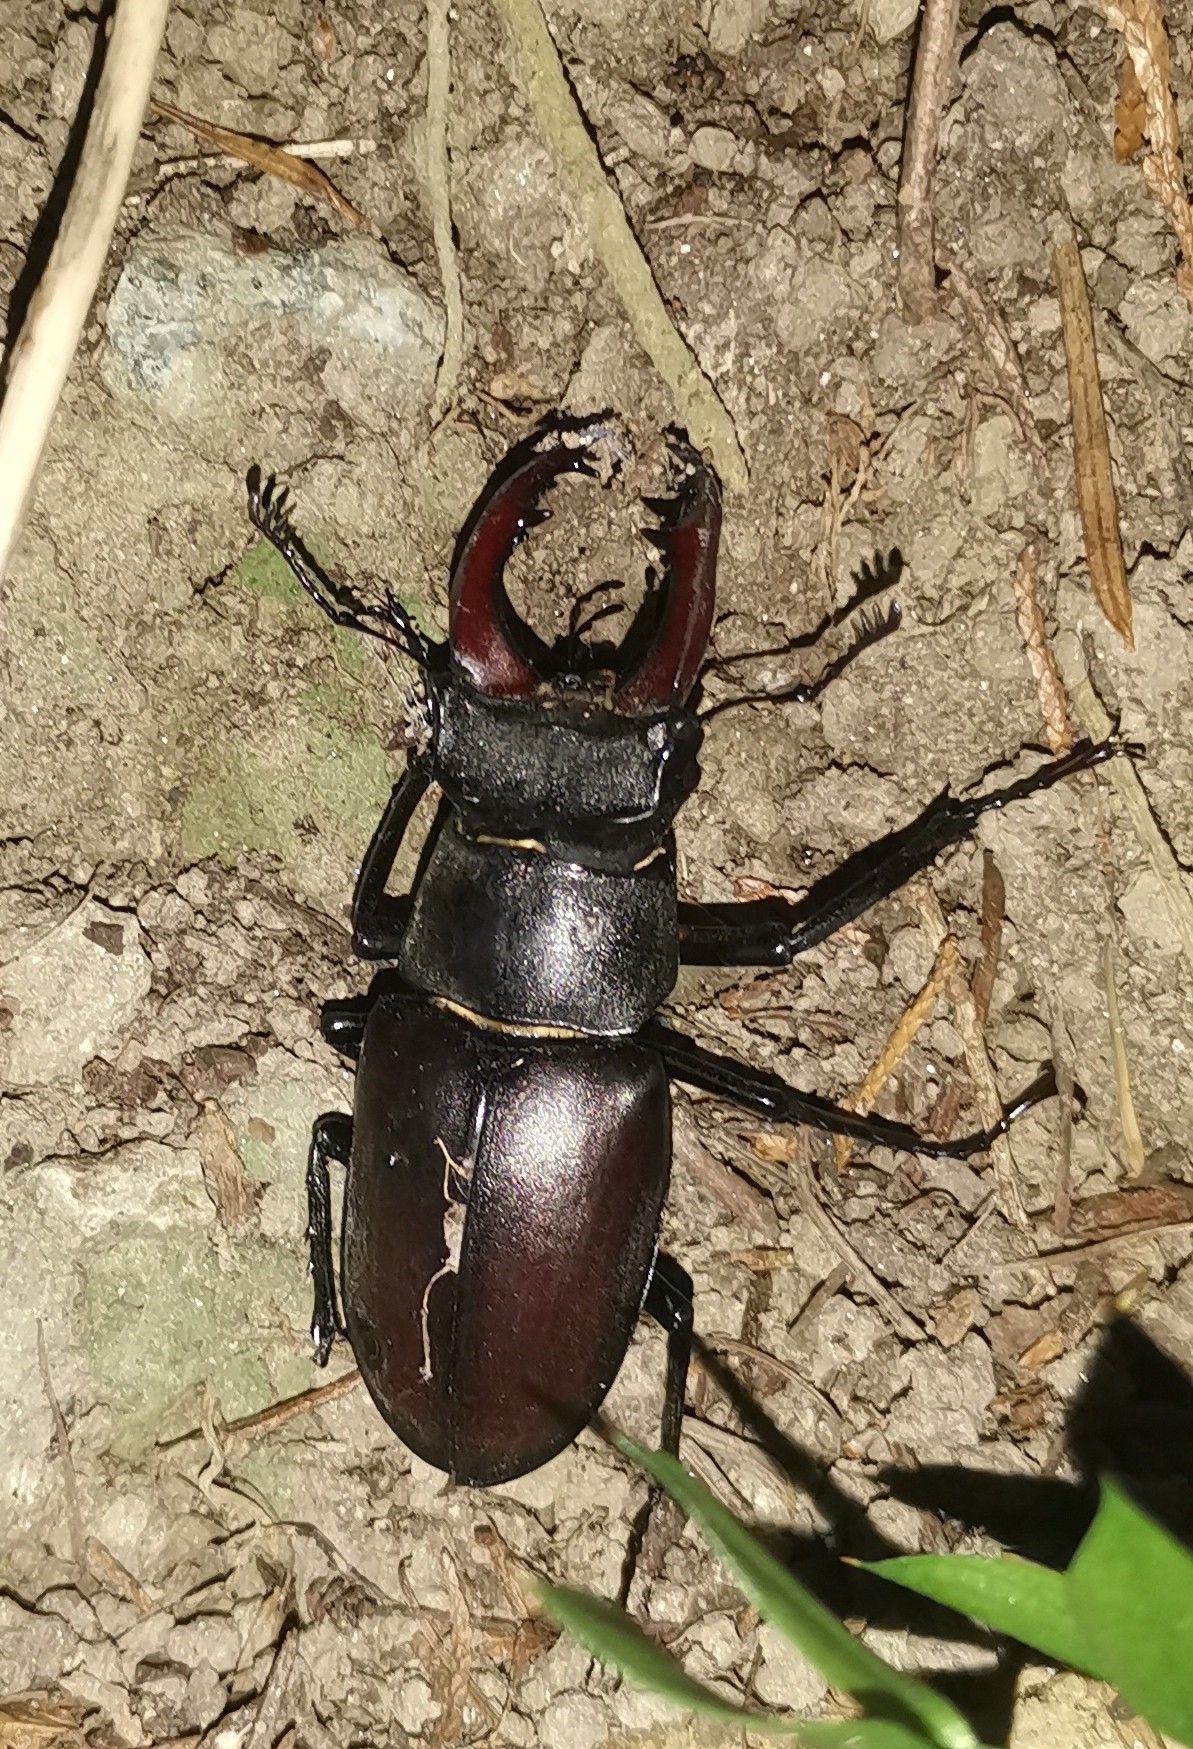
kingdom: Animalia
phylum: Arthropoda
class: Insecta
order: Coleoptera
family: Lucanidae
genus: Lucanus
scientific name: Lucanus cervus
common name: Stag beetle
